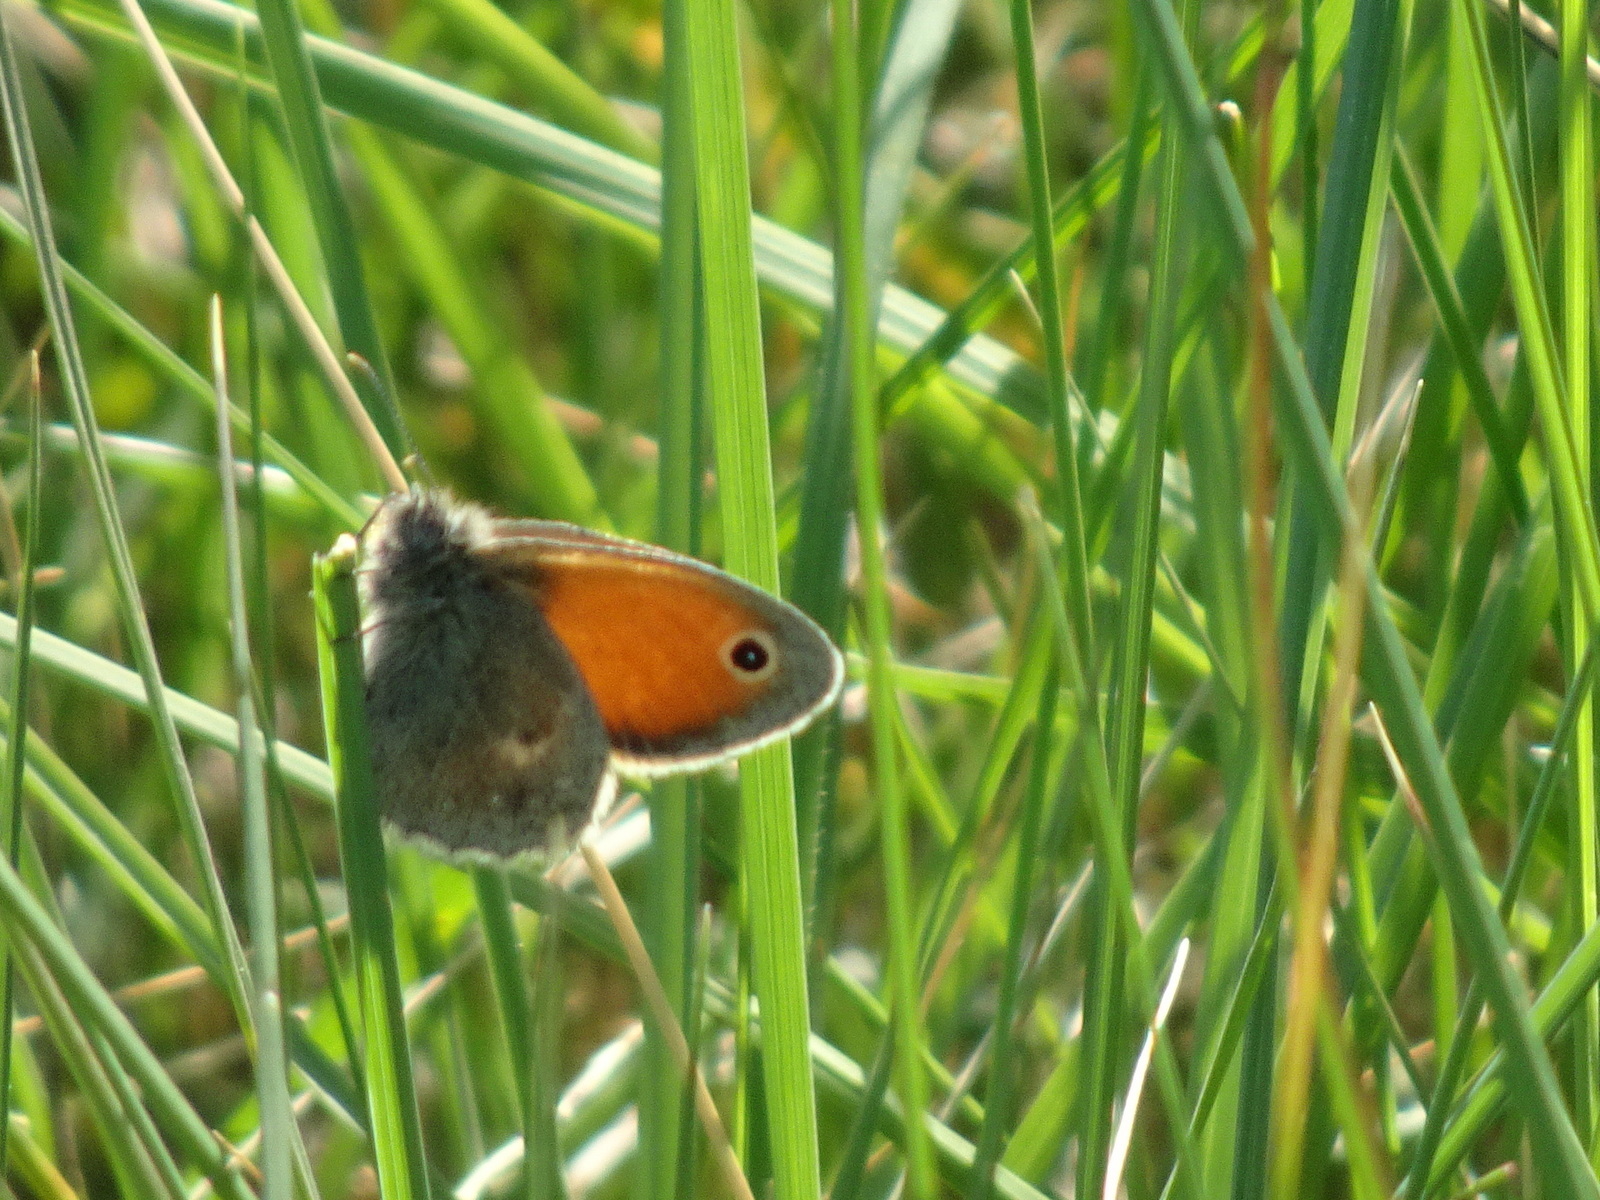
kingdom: Animalia
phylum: Arthropoda
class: Insecta
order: Lepidoptera
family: Nymphalidae
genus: Coenonympha
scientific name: Coenonympha pamphilus
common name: Small heath
